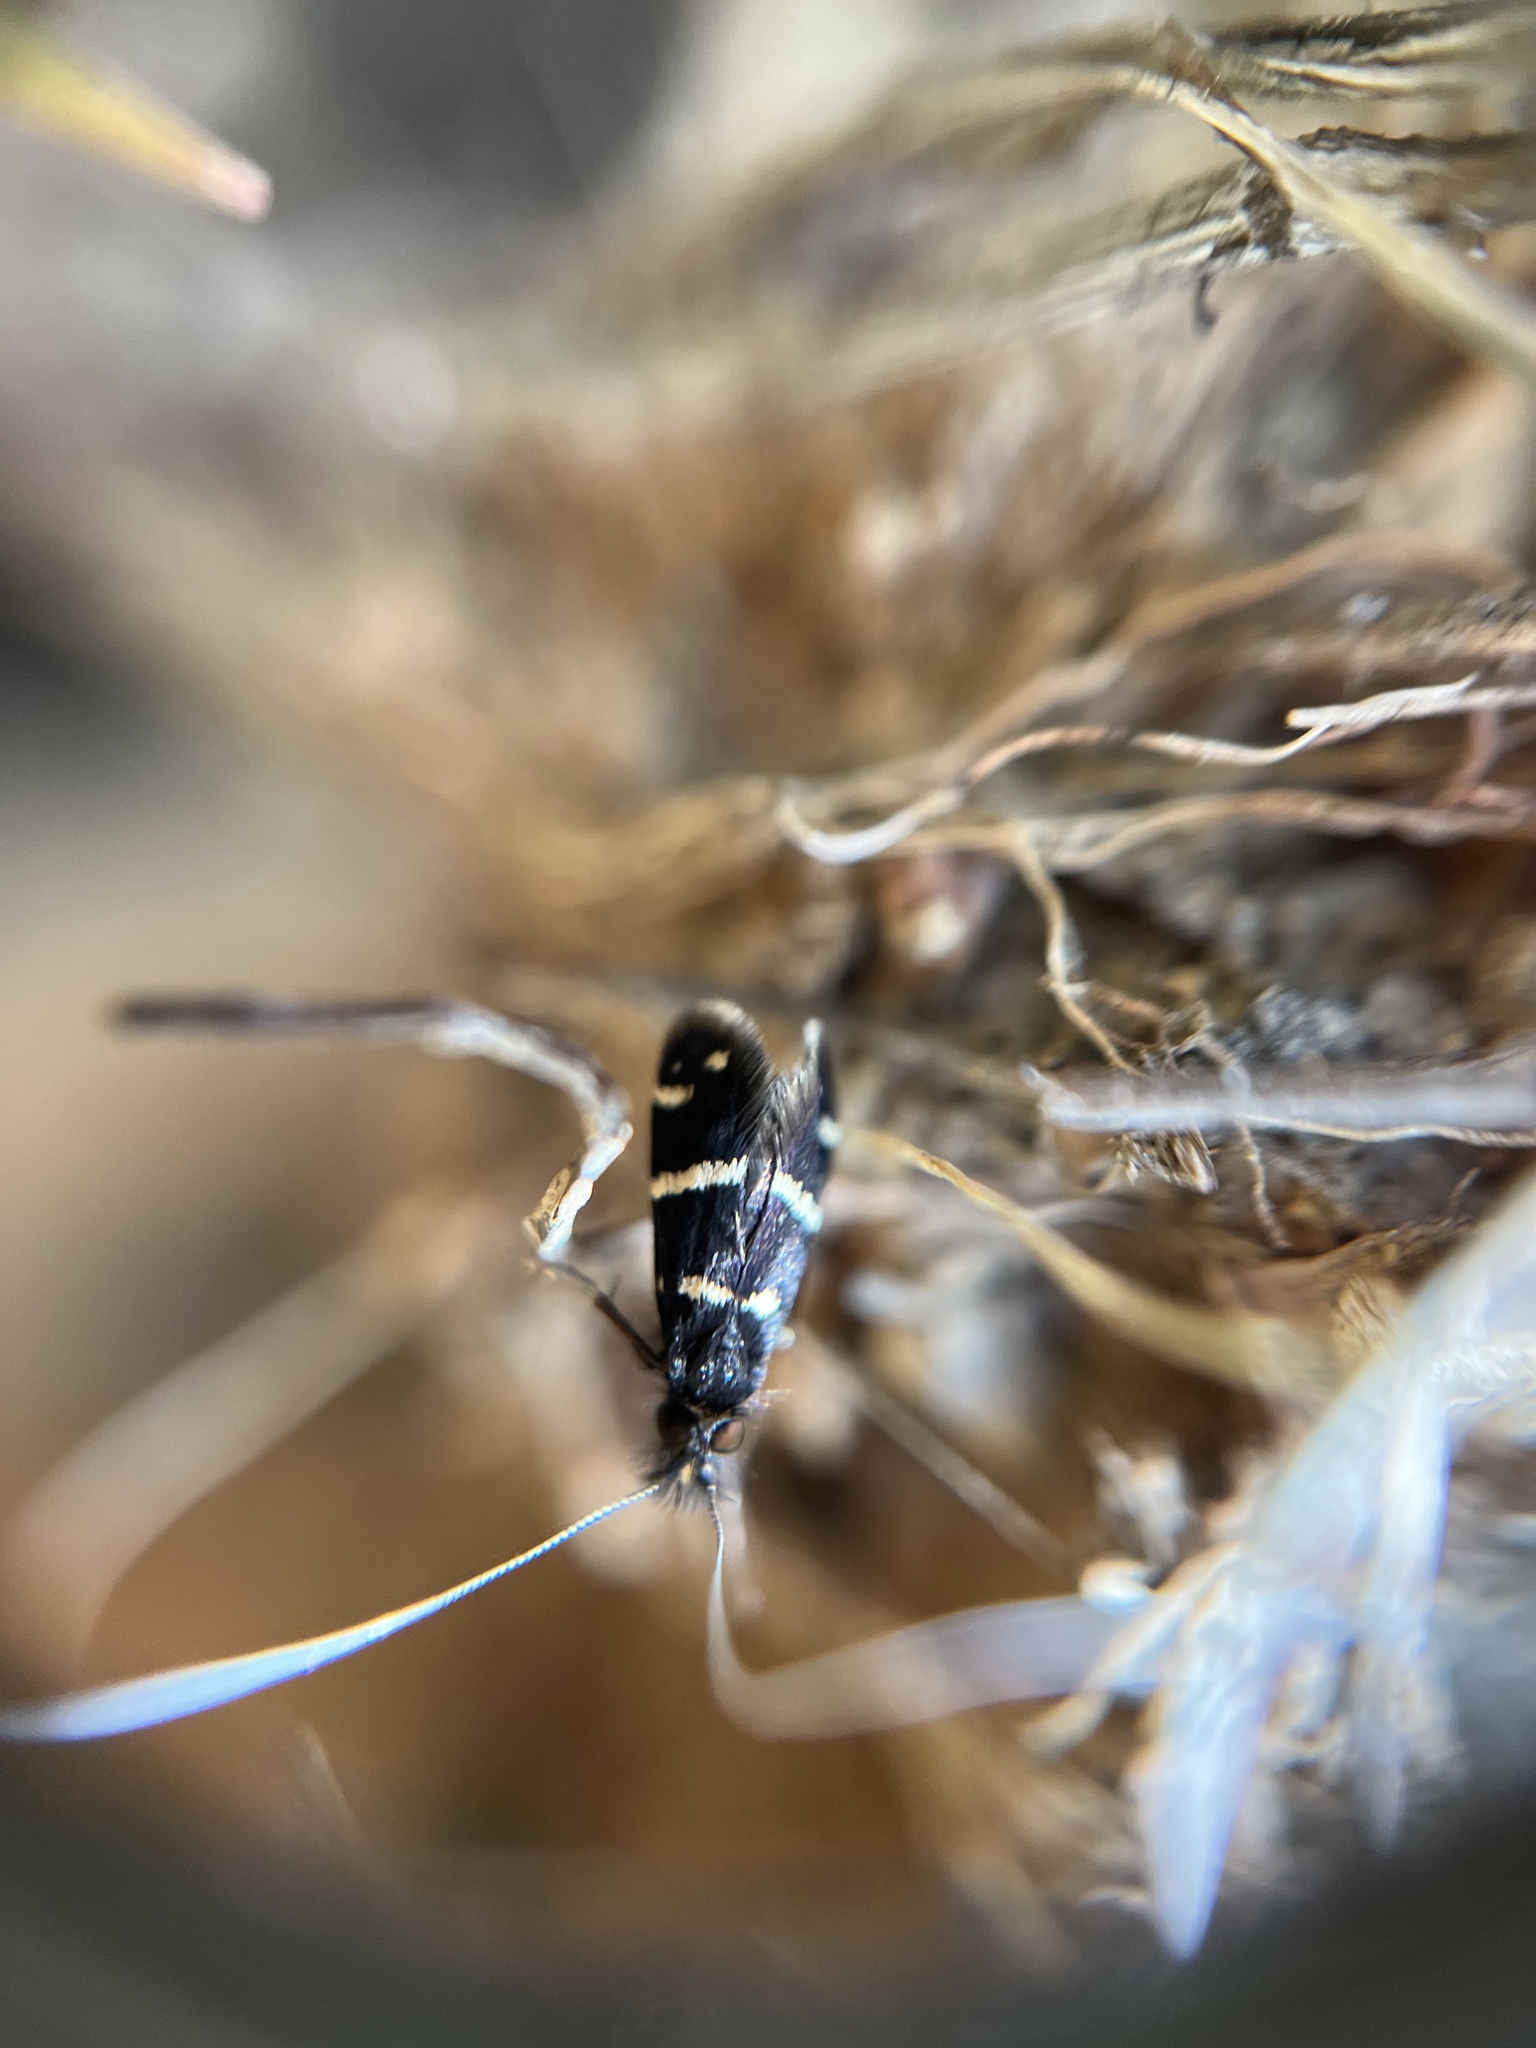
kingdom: Animalia
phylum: Arthropoda
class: Insecta
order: Lepidoptera
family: Adelidae
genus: Adela
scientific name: Adela trigrapha
